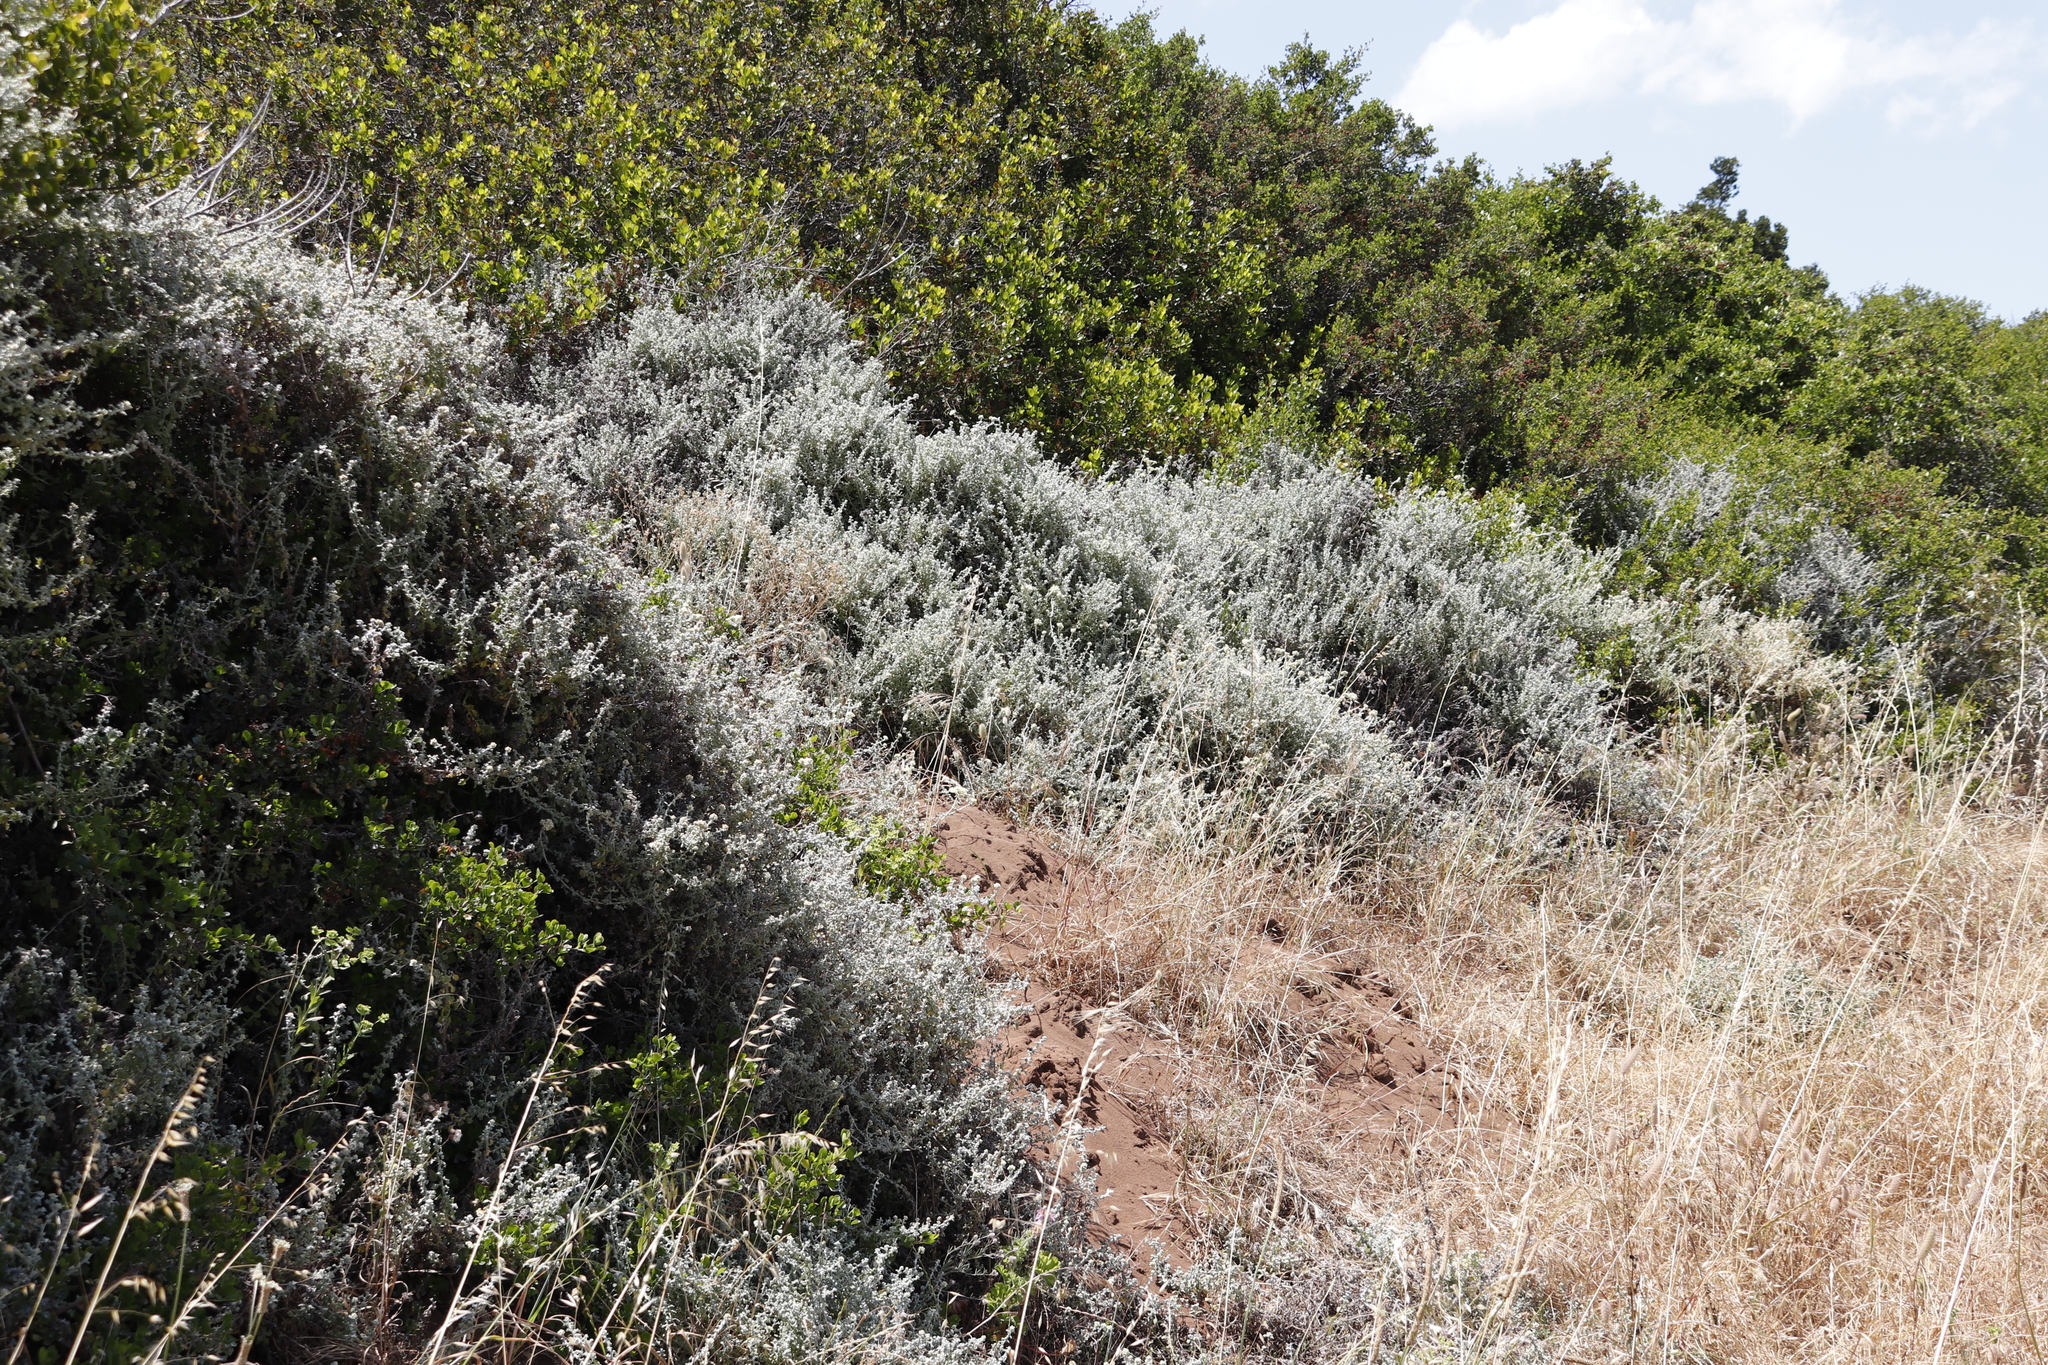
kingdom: Plantae
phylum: Tracheophyta
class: Magnoliopsida
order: Asterales
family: Asteraceae
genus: Seriphium
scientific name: Seriphium plumosum
